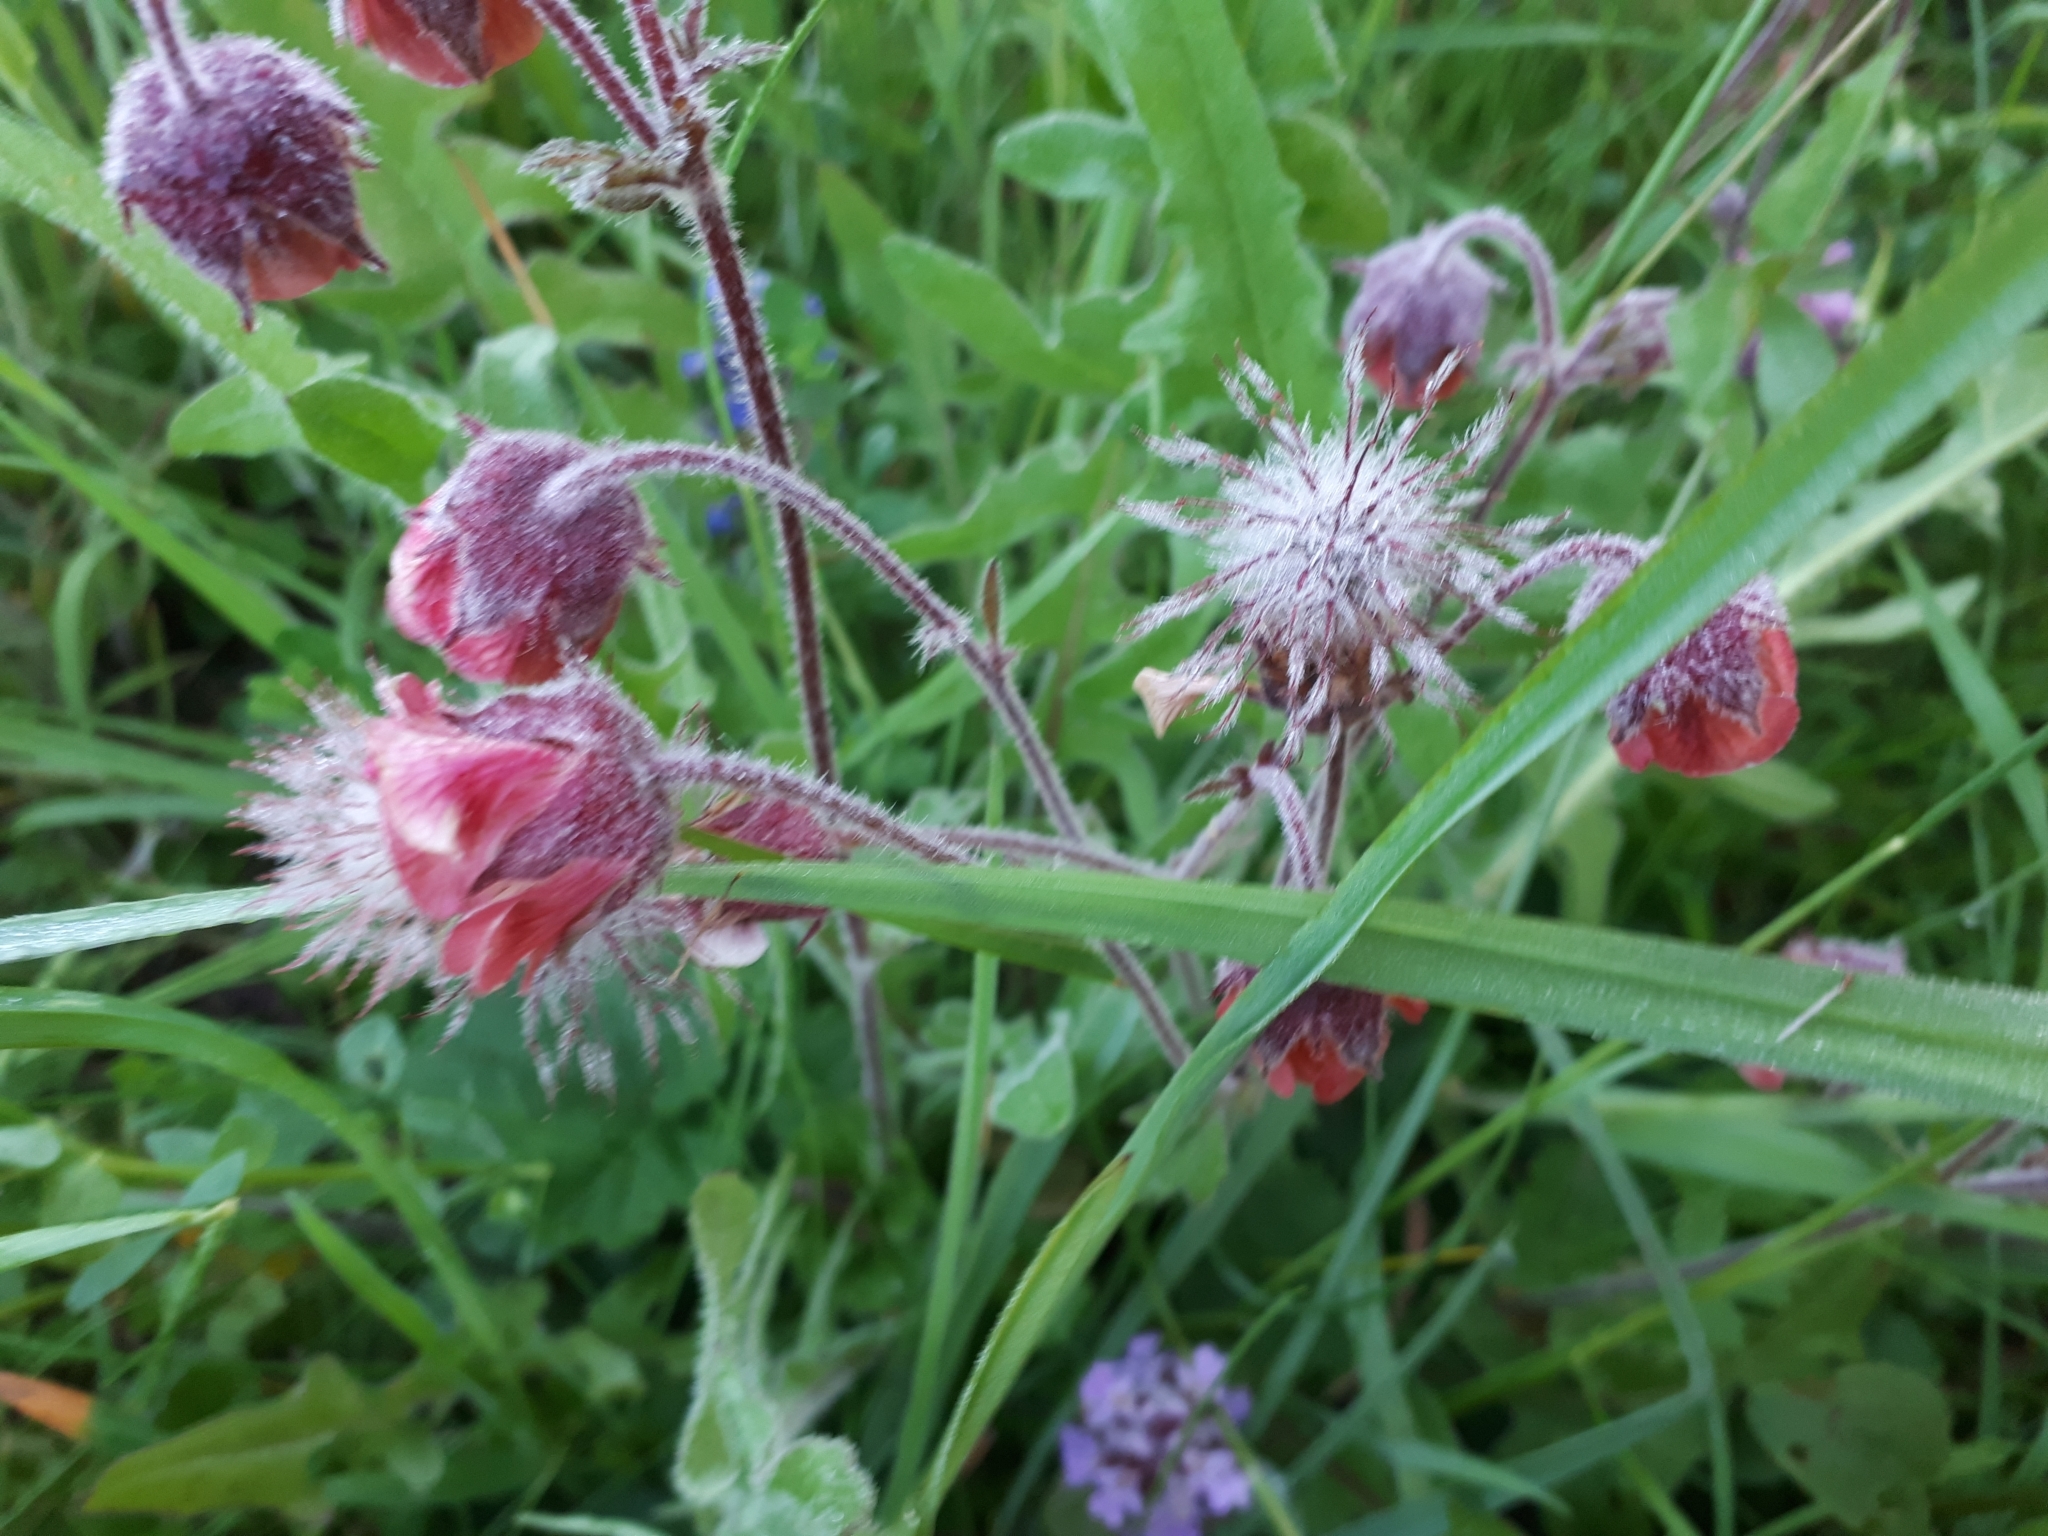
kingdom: Plantae
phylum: Tracheophyta
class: Magnoliopsida
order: Rosales
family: Rosaceae
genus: Geum
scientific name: Geum rivale
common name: Water avens
